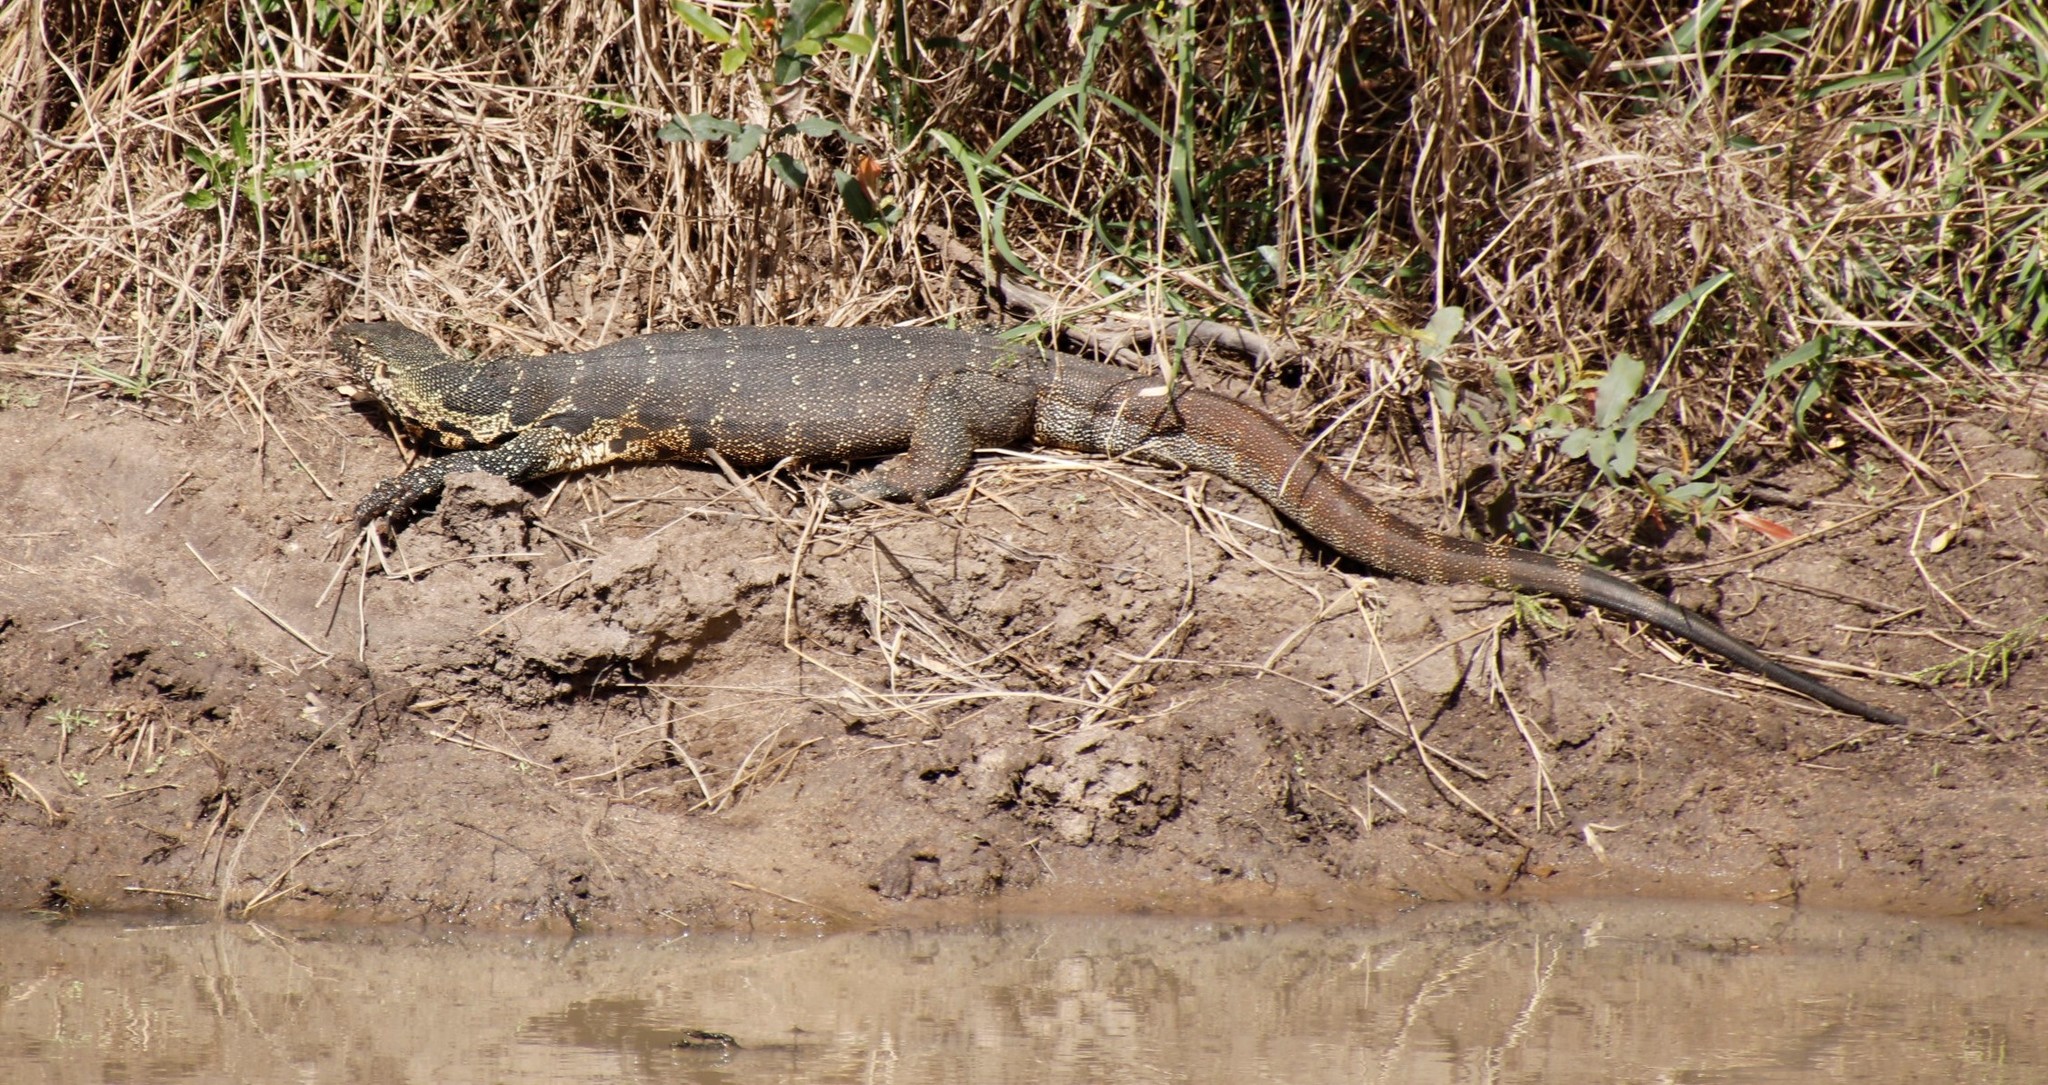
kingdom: Animalia
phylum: Chordata
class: Squamata
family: Varanidae
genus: Varanus
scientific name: Varanus niloticus
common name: Nile monitor
